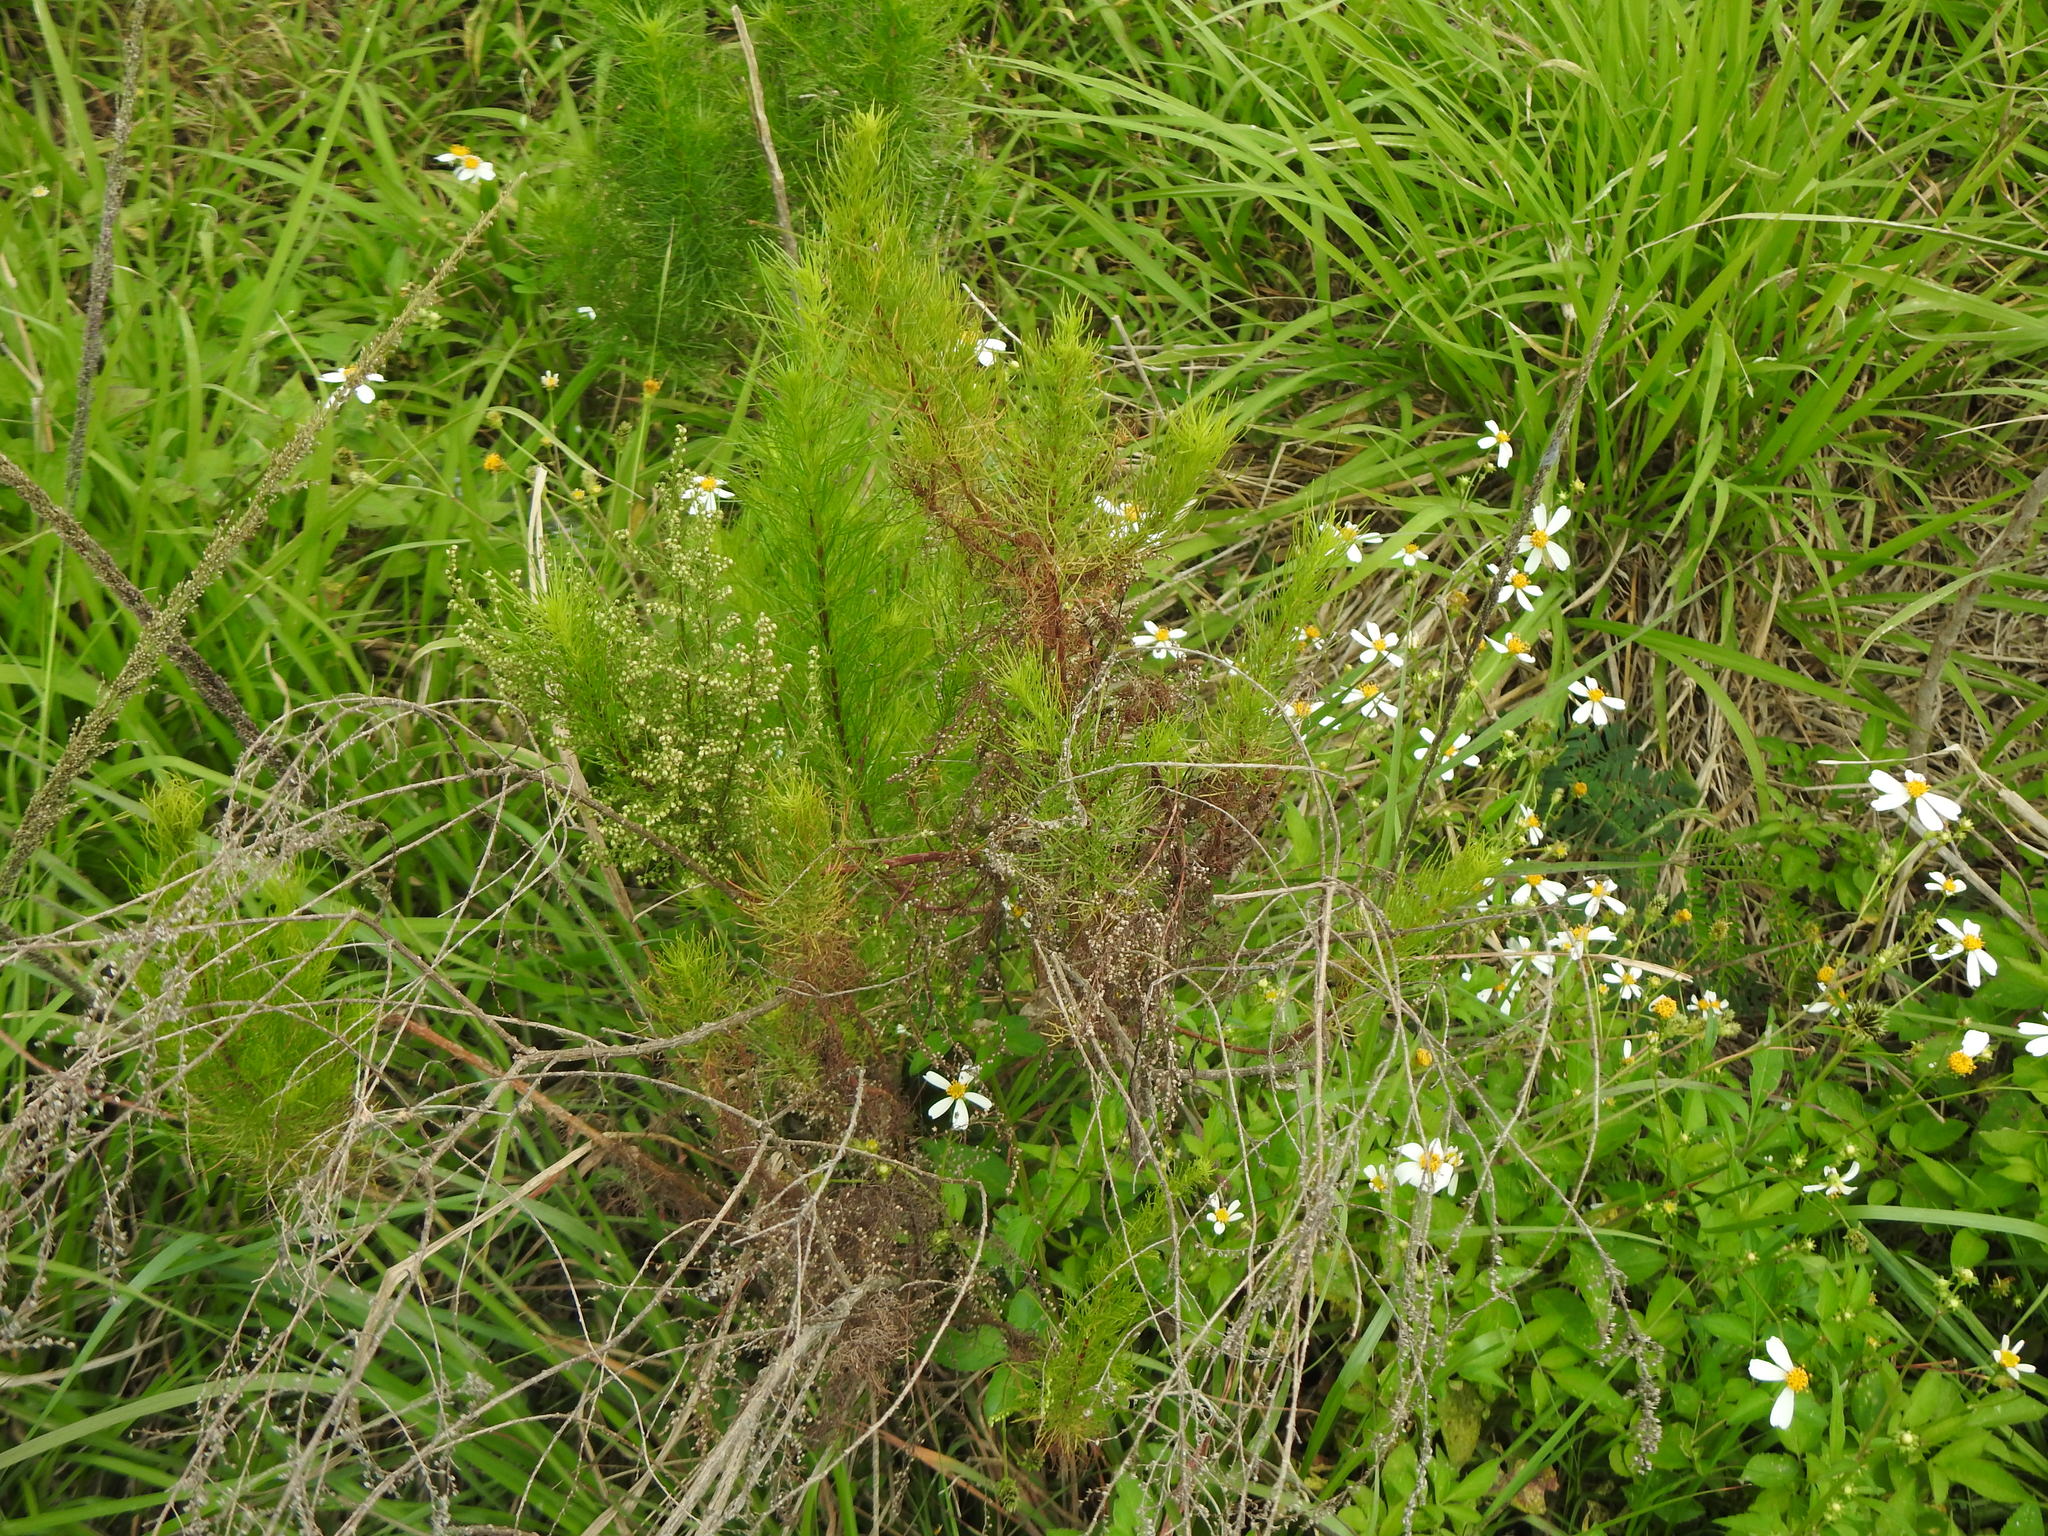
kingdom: Plantae
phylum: Tracheophyta
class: Magnoliopsida
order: Asterales
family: Asteraceae
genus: Artemisia
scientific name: Artemisia capillaris
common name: Yin-chen wormwood
